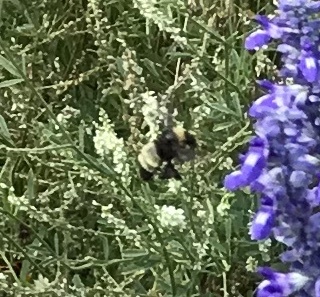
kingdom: Animalia
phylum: Arthropoda
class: Insecta
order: Hymenoptera
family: Apidae
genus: Bombus
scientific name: Bombus pensylvanicus
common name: Bumble bee
